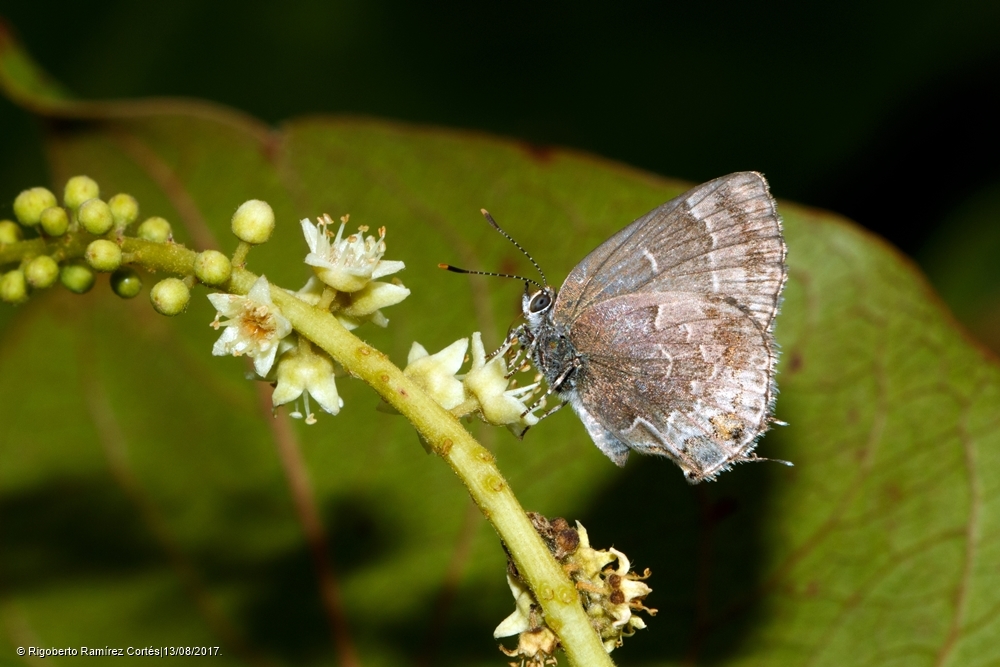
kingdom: Animalia
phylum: Arthropoda
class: Insecta
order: Lepidoptera
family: Lycaenidae
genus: Ocaria
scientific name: Ocaria ocrisia
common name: Black hairstreak
